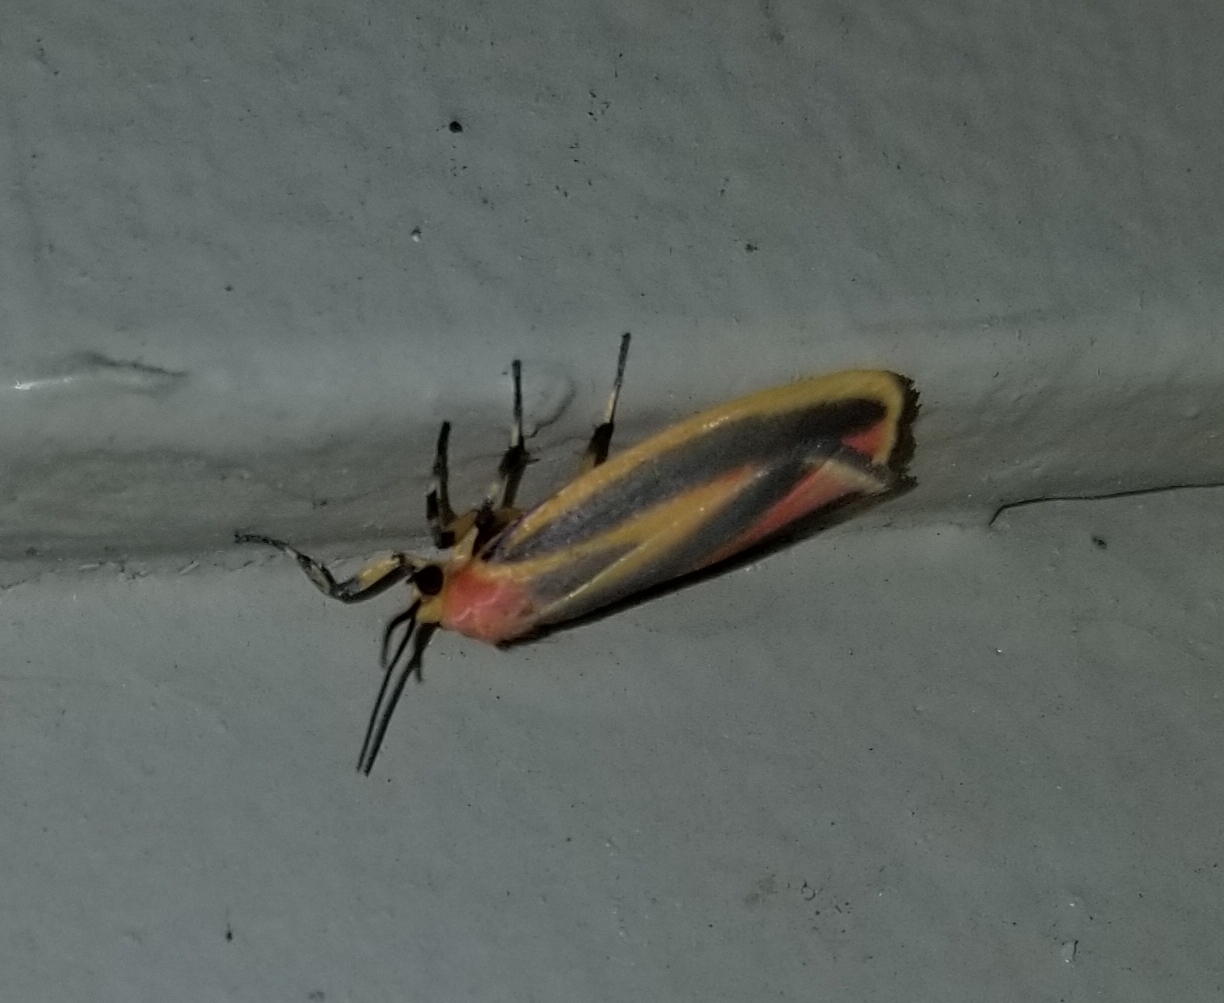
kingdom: Animalia
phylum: Arthropoda
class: Insecta
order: Lepidoptera
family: Erebidae
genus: Hypoprepia
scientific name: Hypoprepia fucosa
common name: Painted lichen moth
